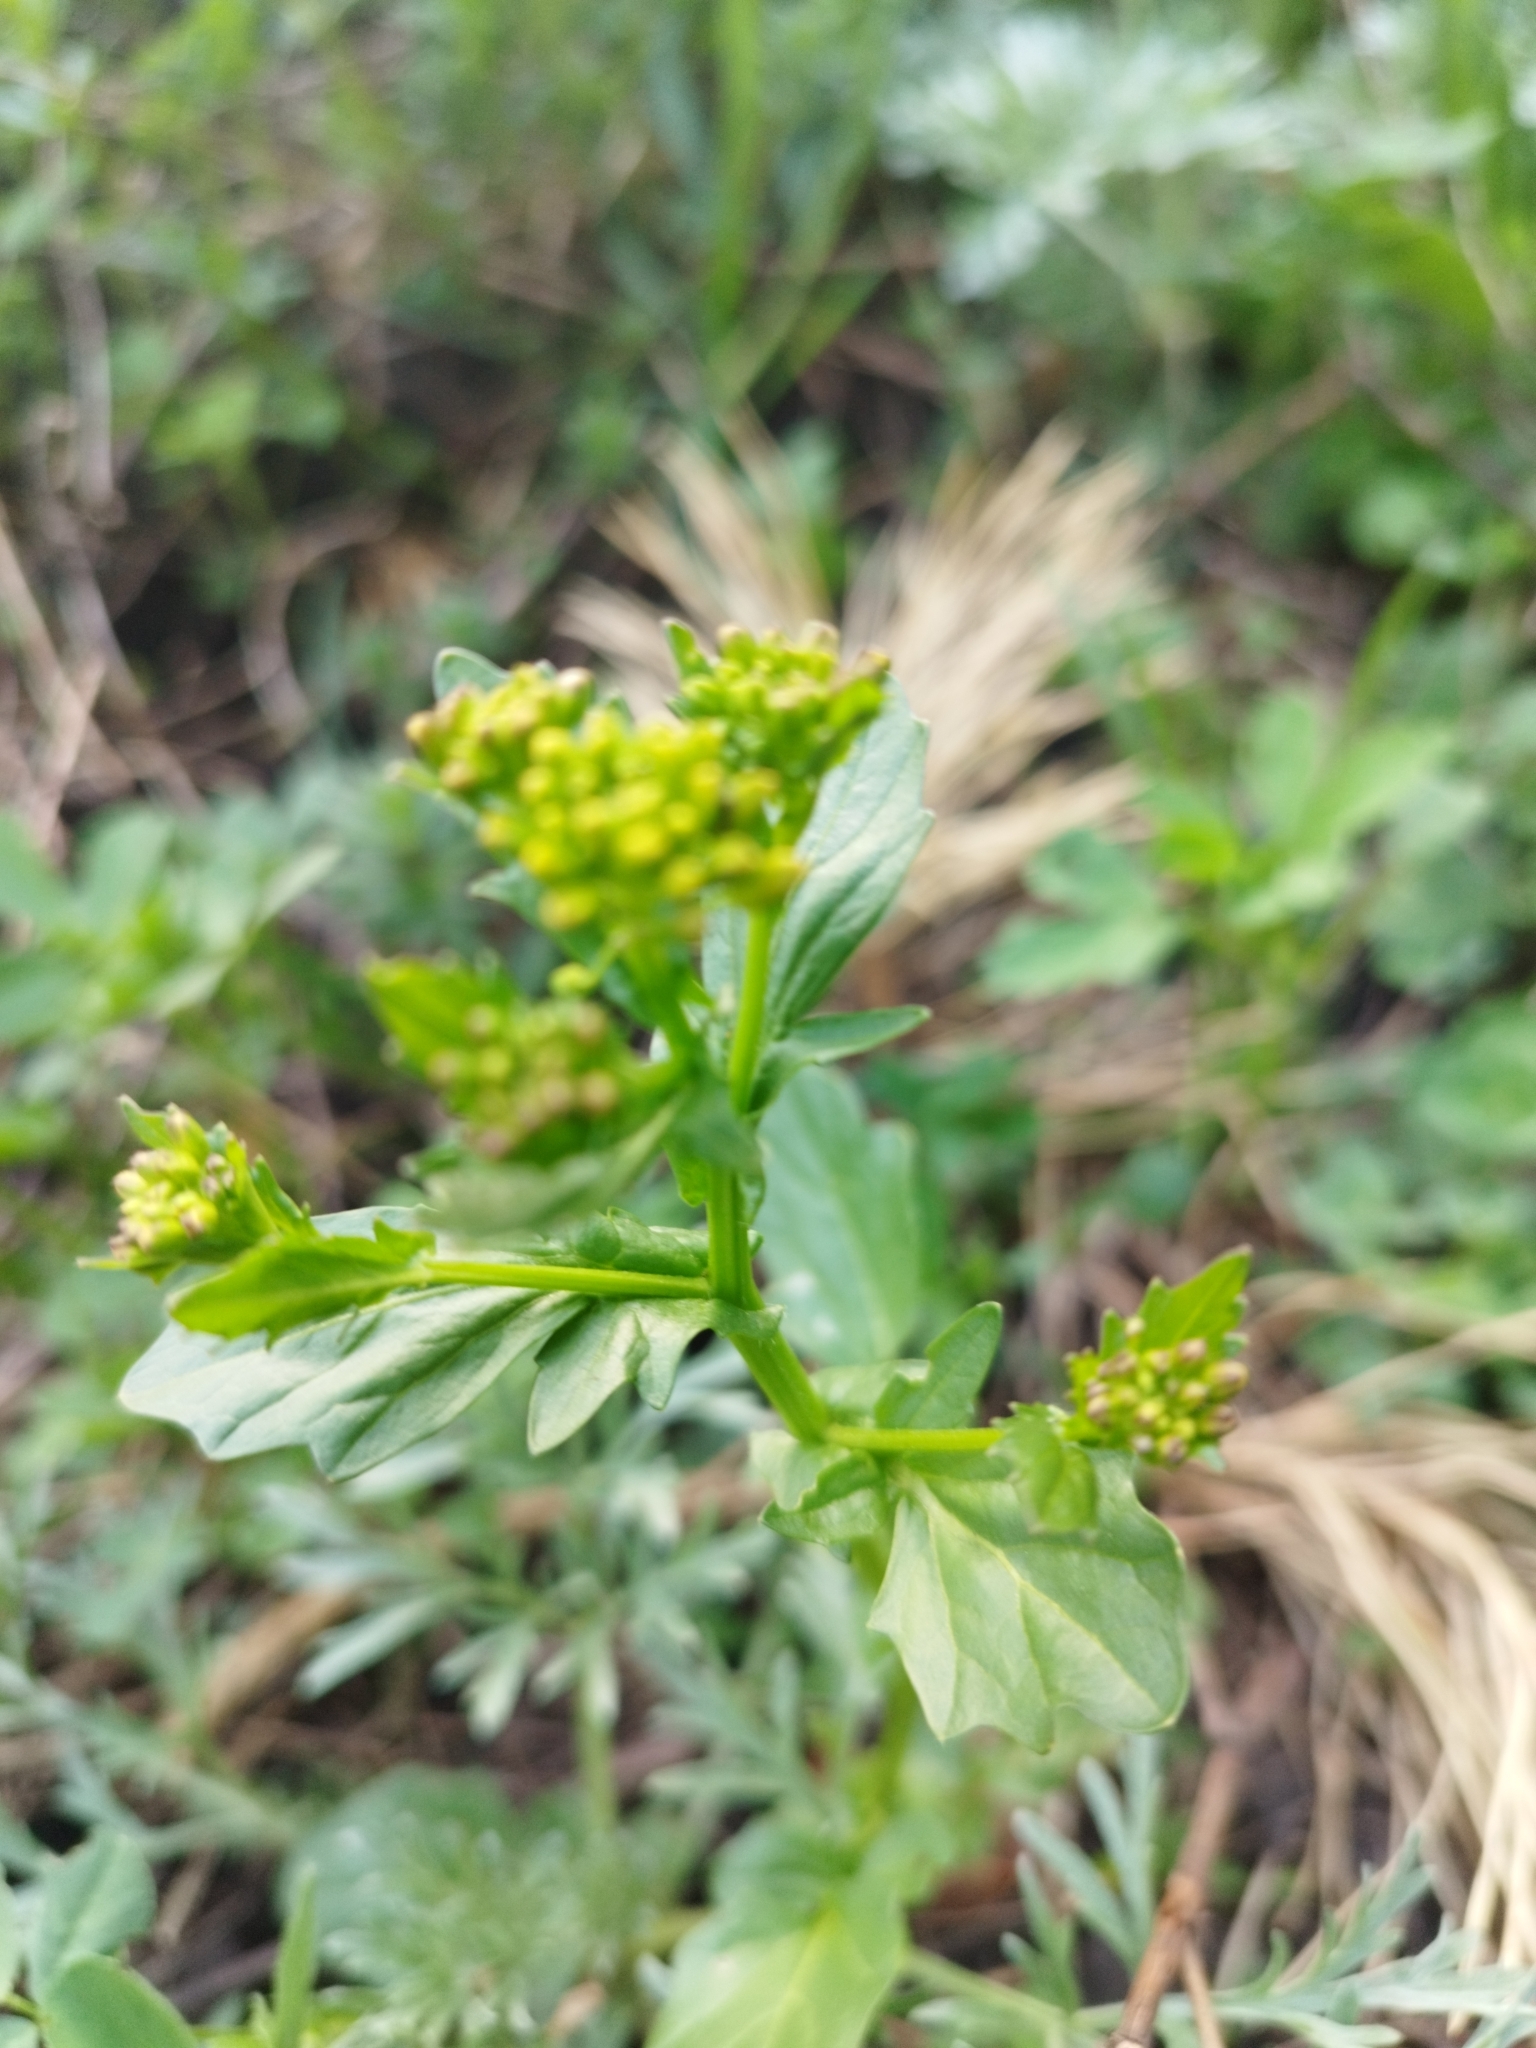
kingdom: Plantae
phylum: Tracheophyta
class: Magnoliopsida
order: Brassicales
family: Brassicaceae
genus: Barbarea
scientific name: Barbarea vulgaris
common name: Cressy-greens
